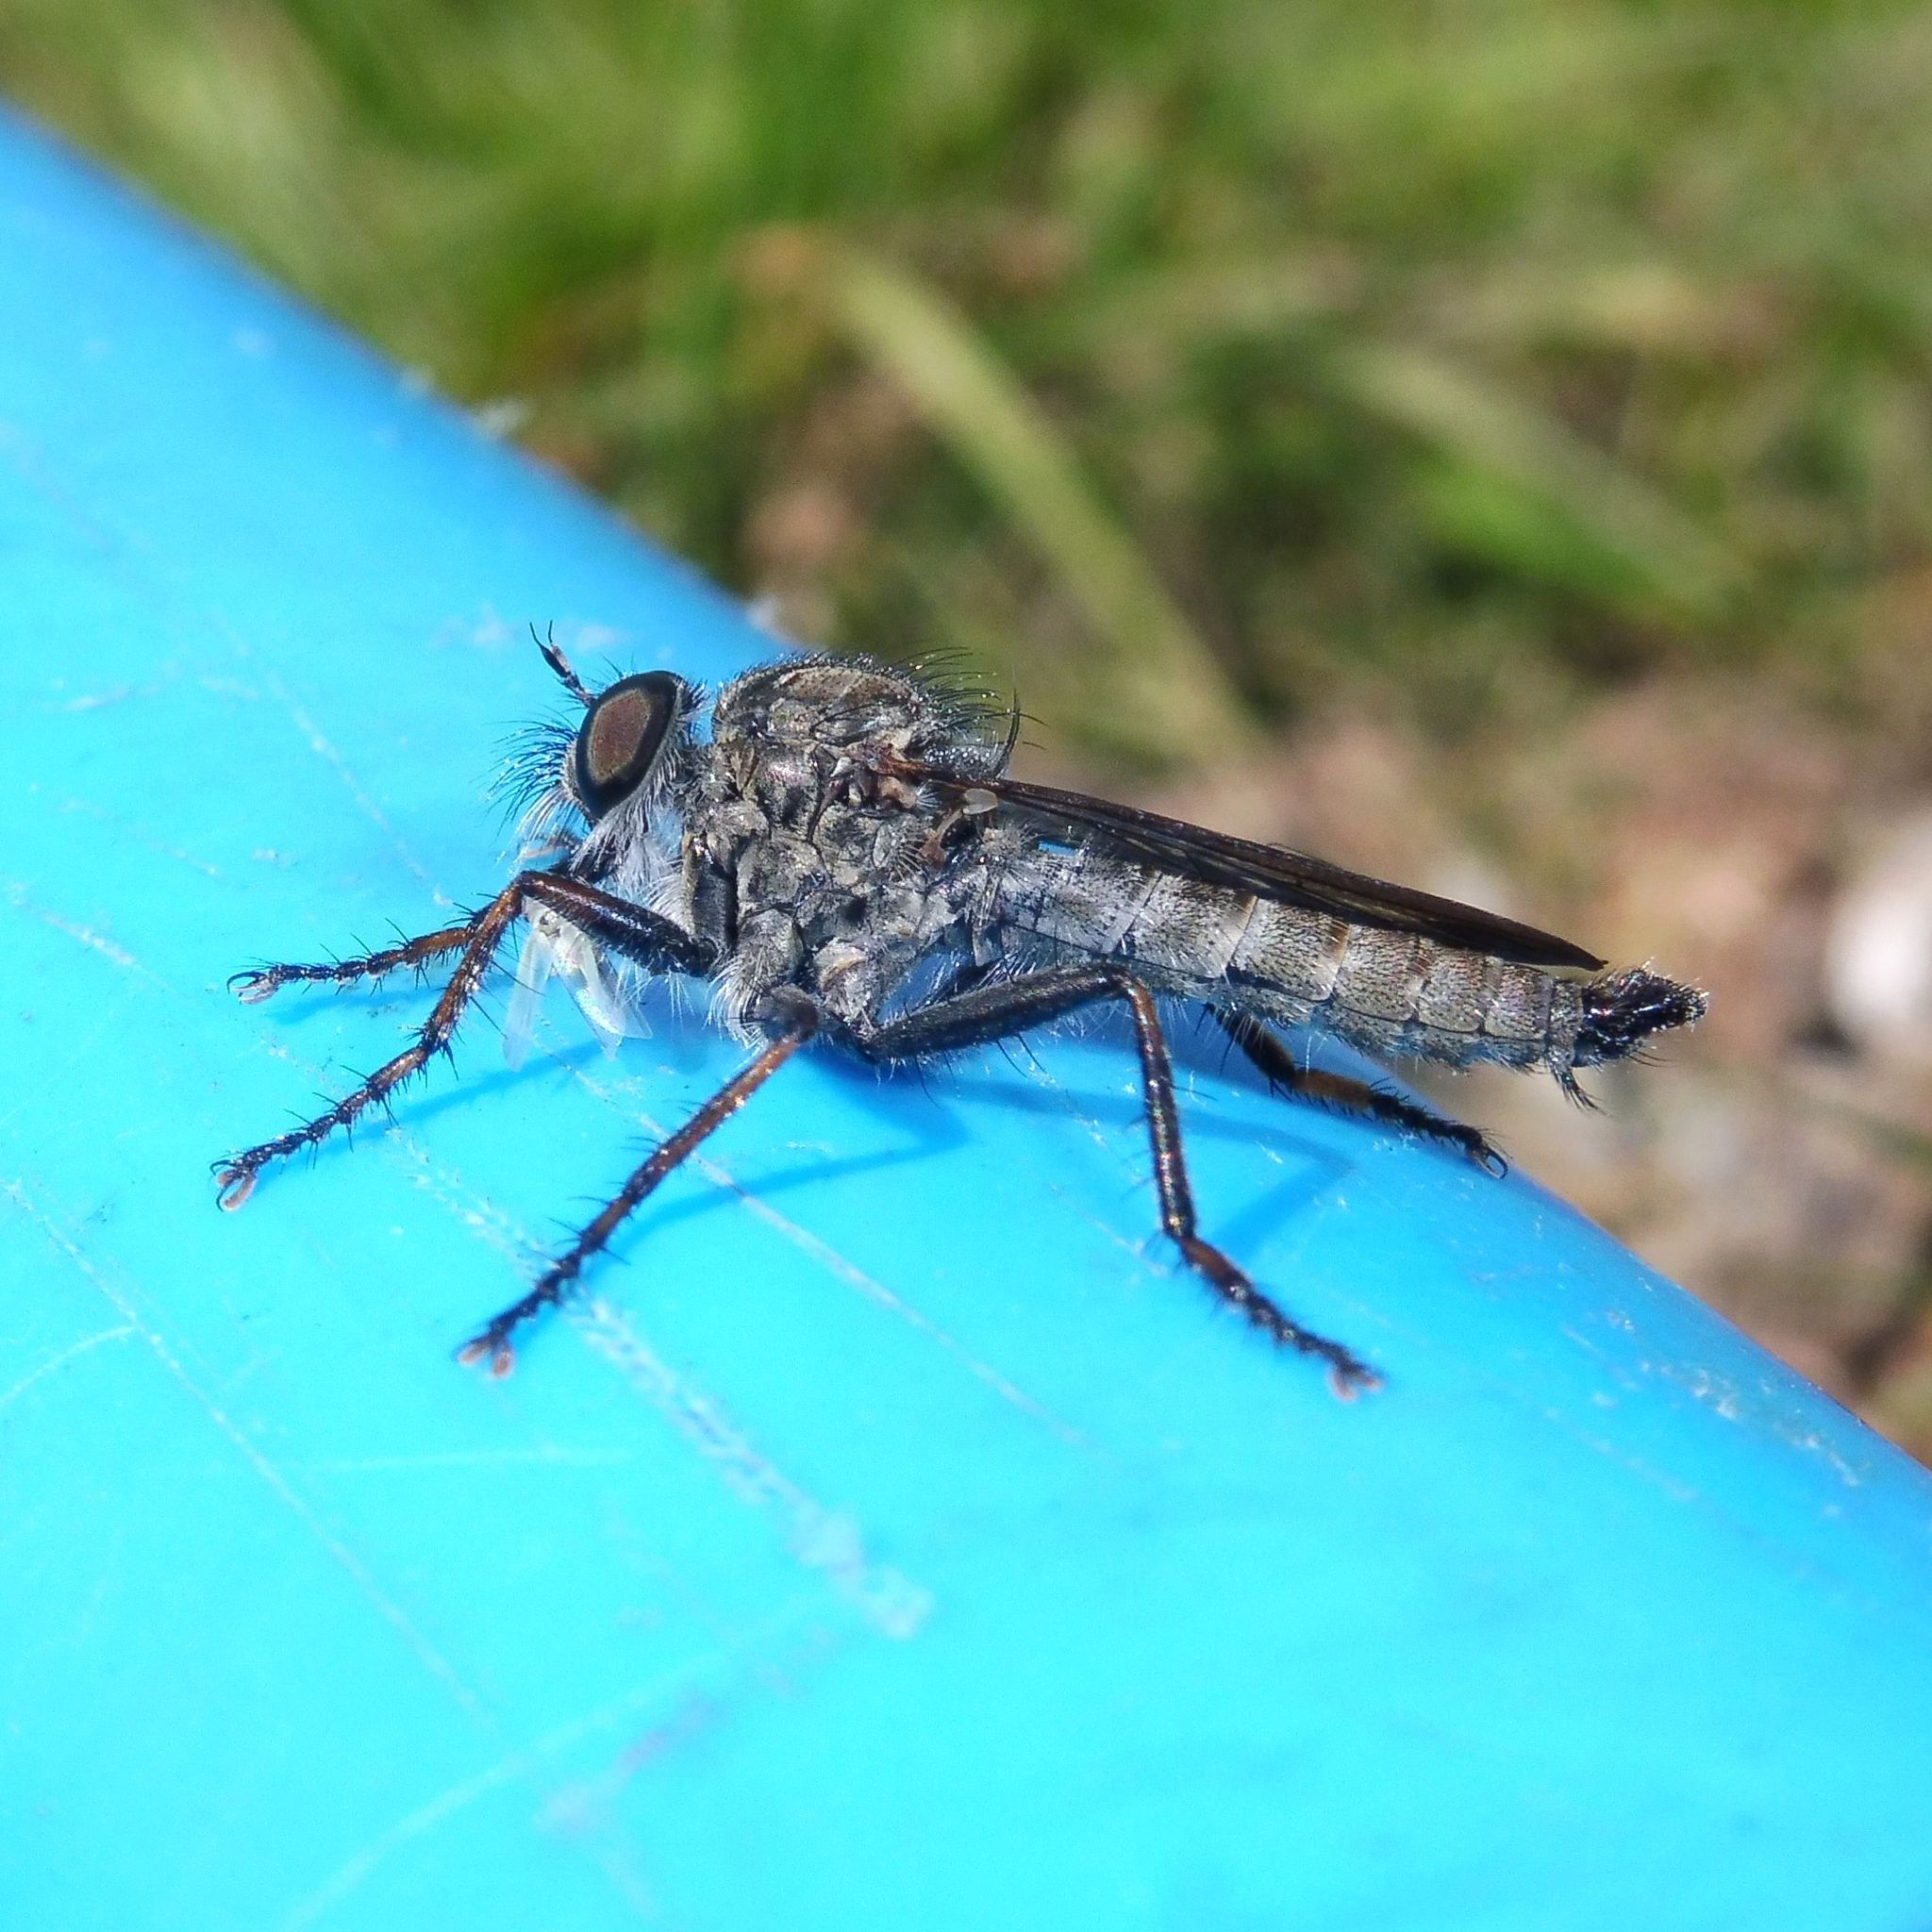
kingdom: Animalia
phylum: Arthropoda
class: Insecta
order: Diptera
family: Asilidae
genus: Machimus
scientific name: Machimus atricapillus
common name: Kite-tailed robberfly
